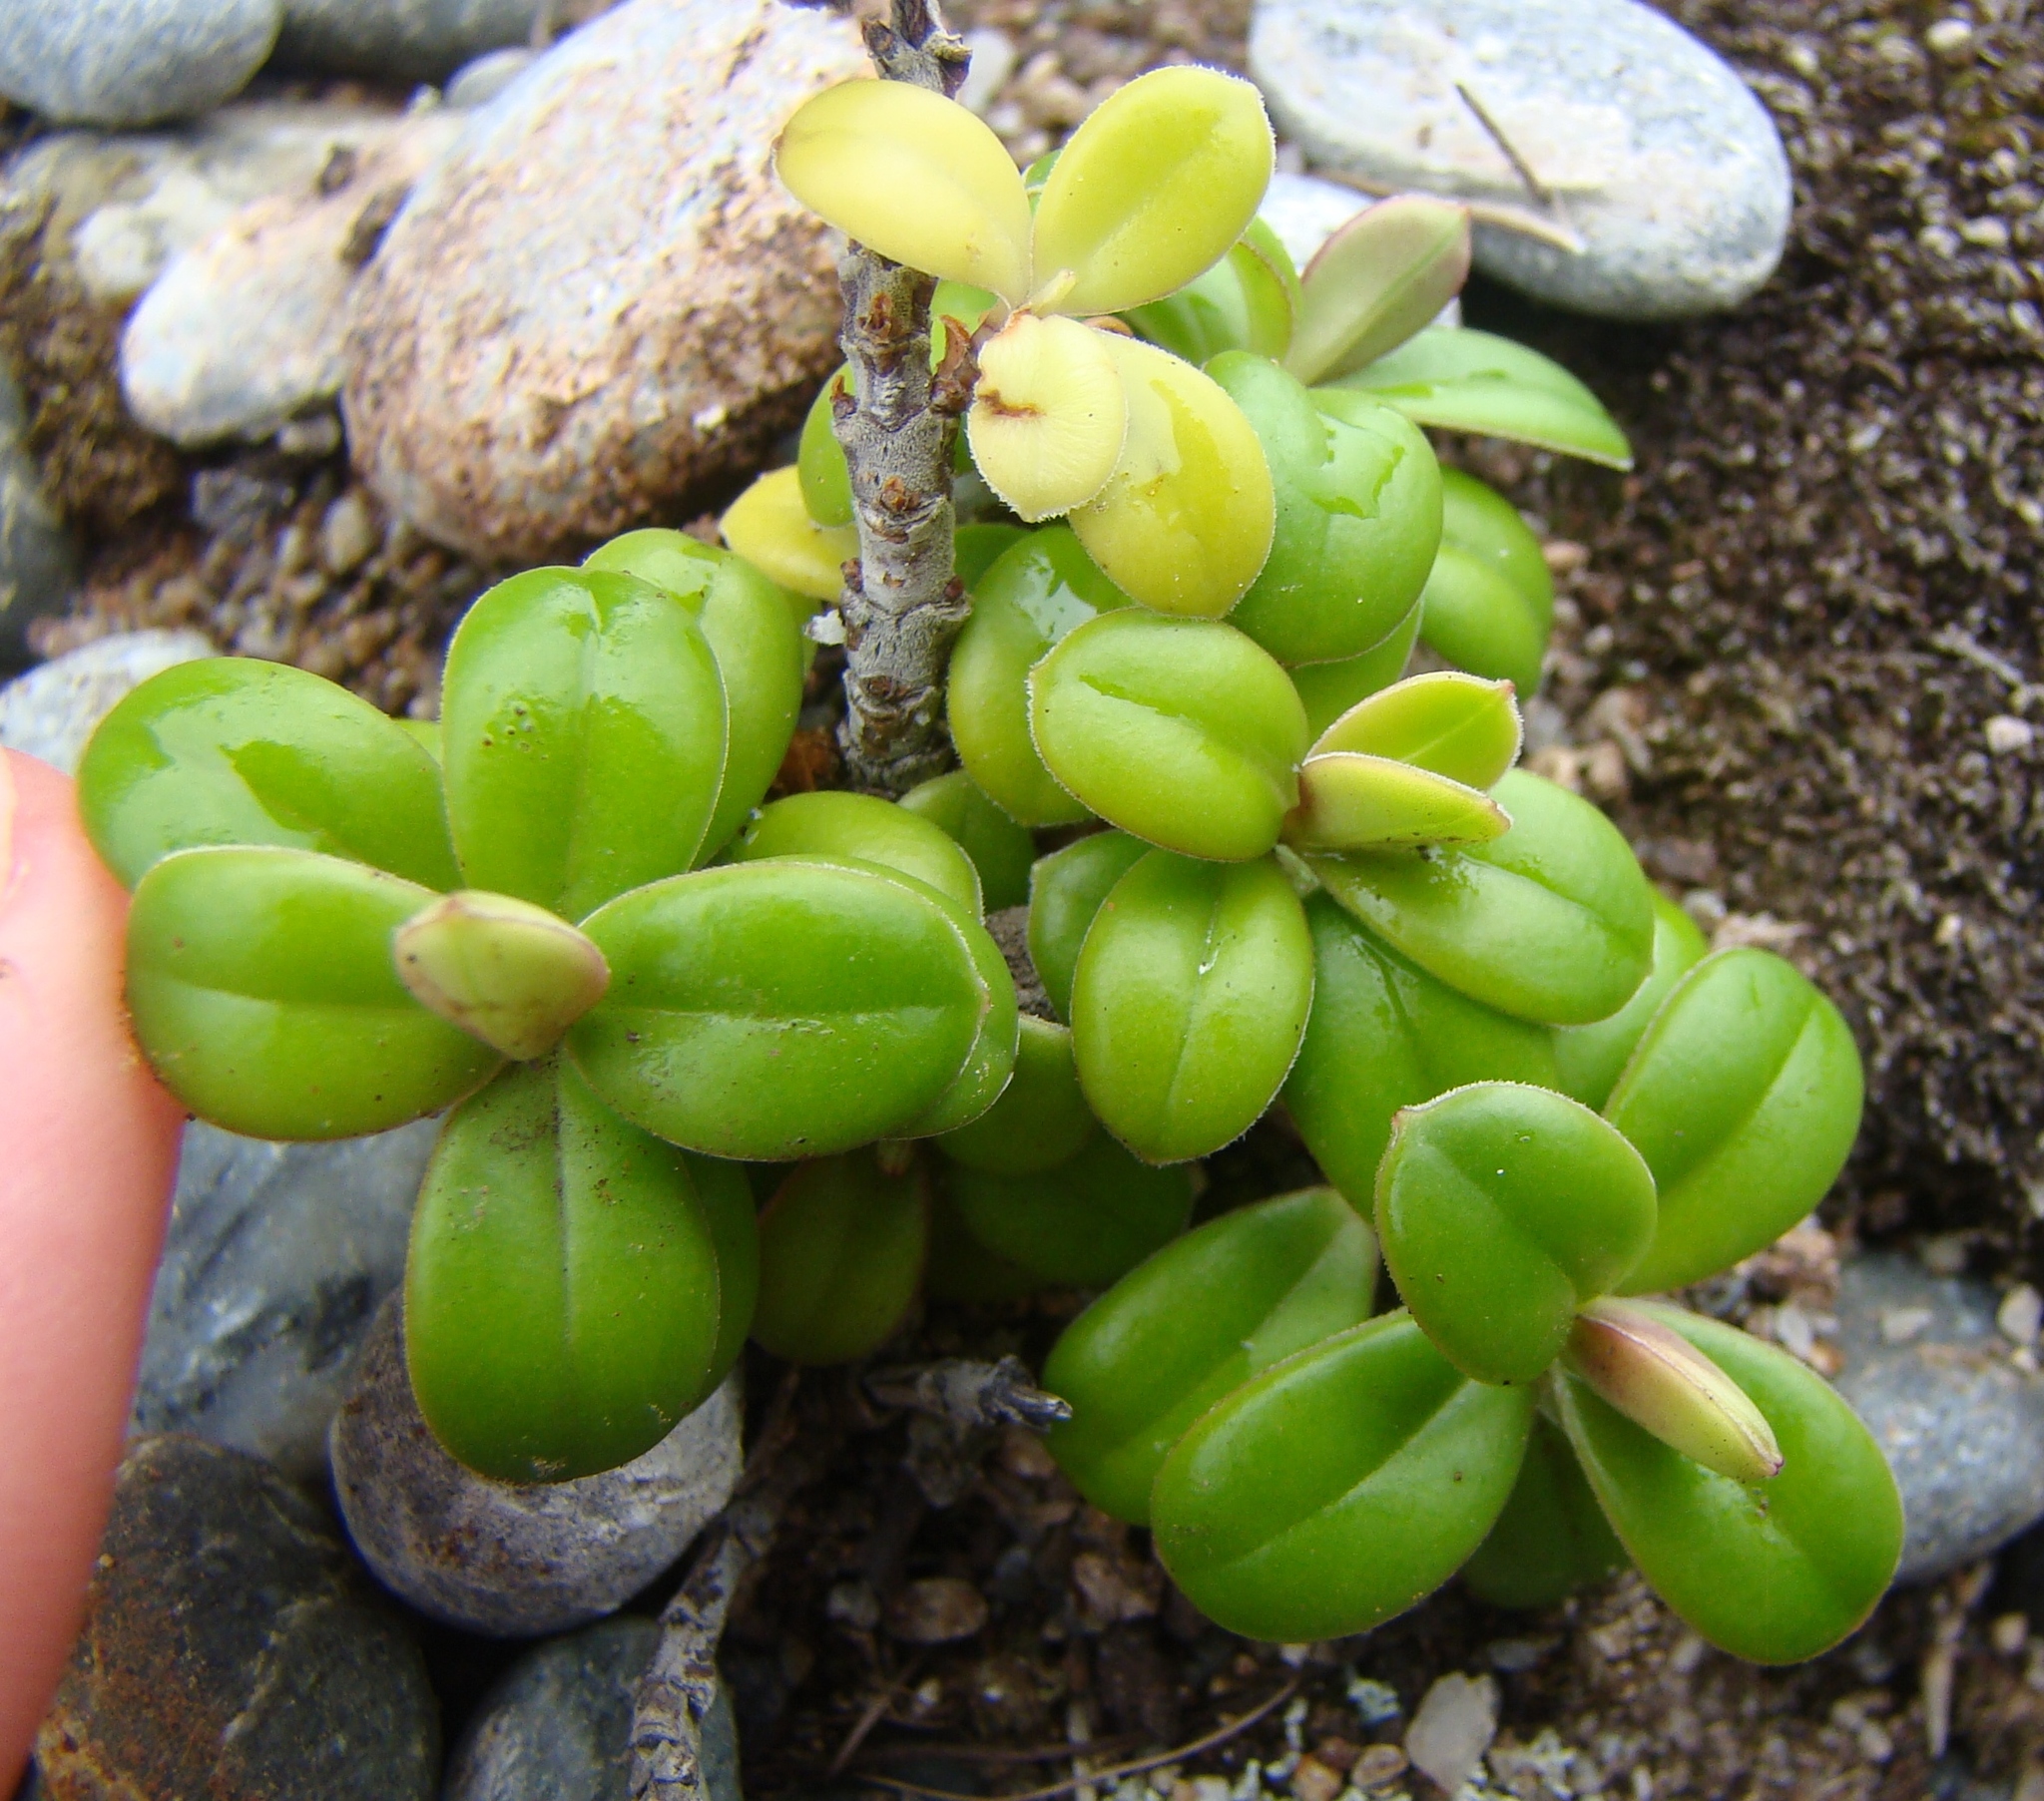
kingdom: Plantae
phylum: Tracheophyta
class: Magnoliopsida
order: Lamiales
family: Plantaginaceae
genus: Veronica
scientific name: Veronica elliptica
